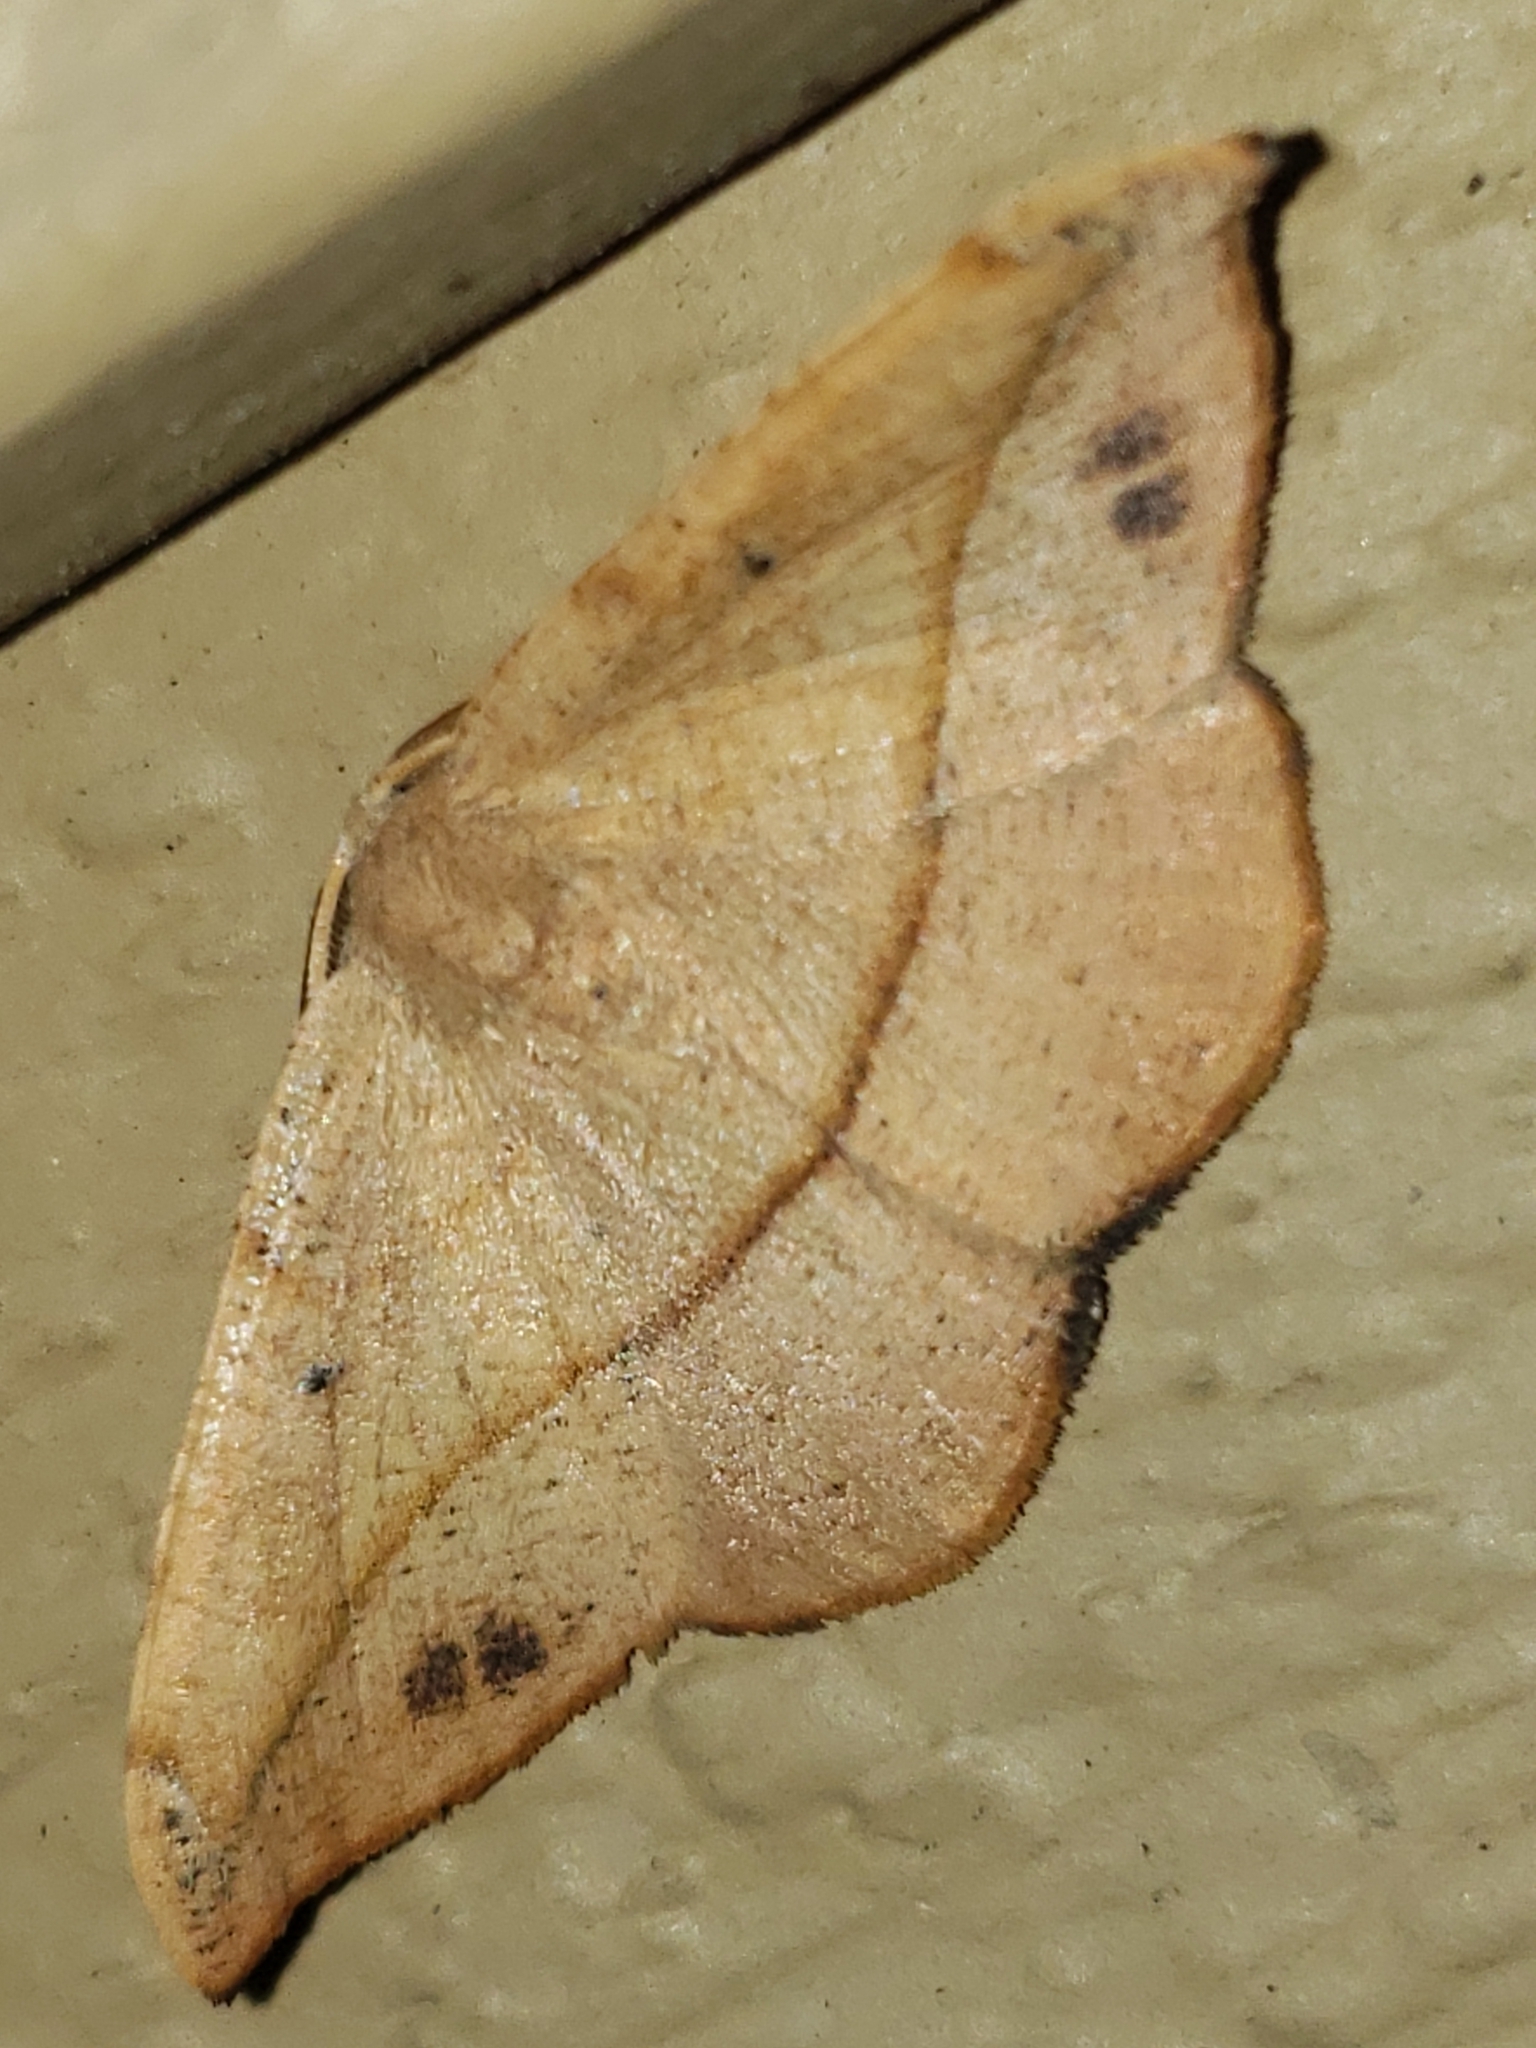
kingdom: Animalia
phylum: Arthropoda
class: Insecta
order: Lepidoptera
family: Geometridae
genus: Patalene
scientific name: Patalene olyzonaria
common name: Juniper geometer moth
